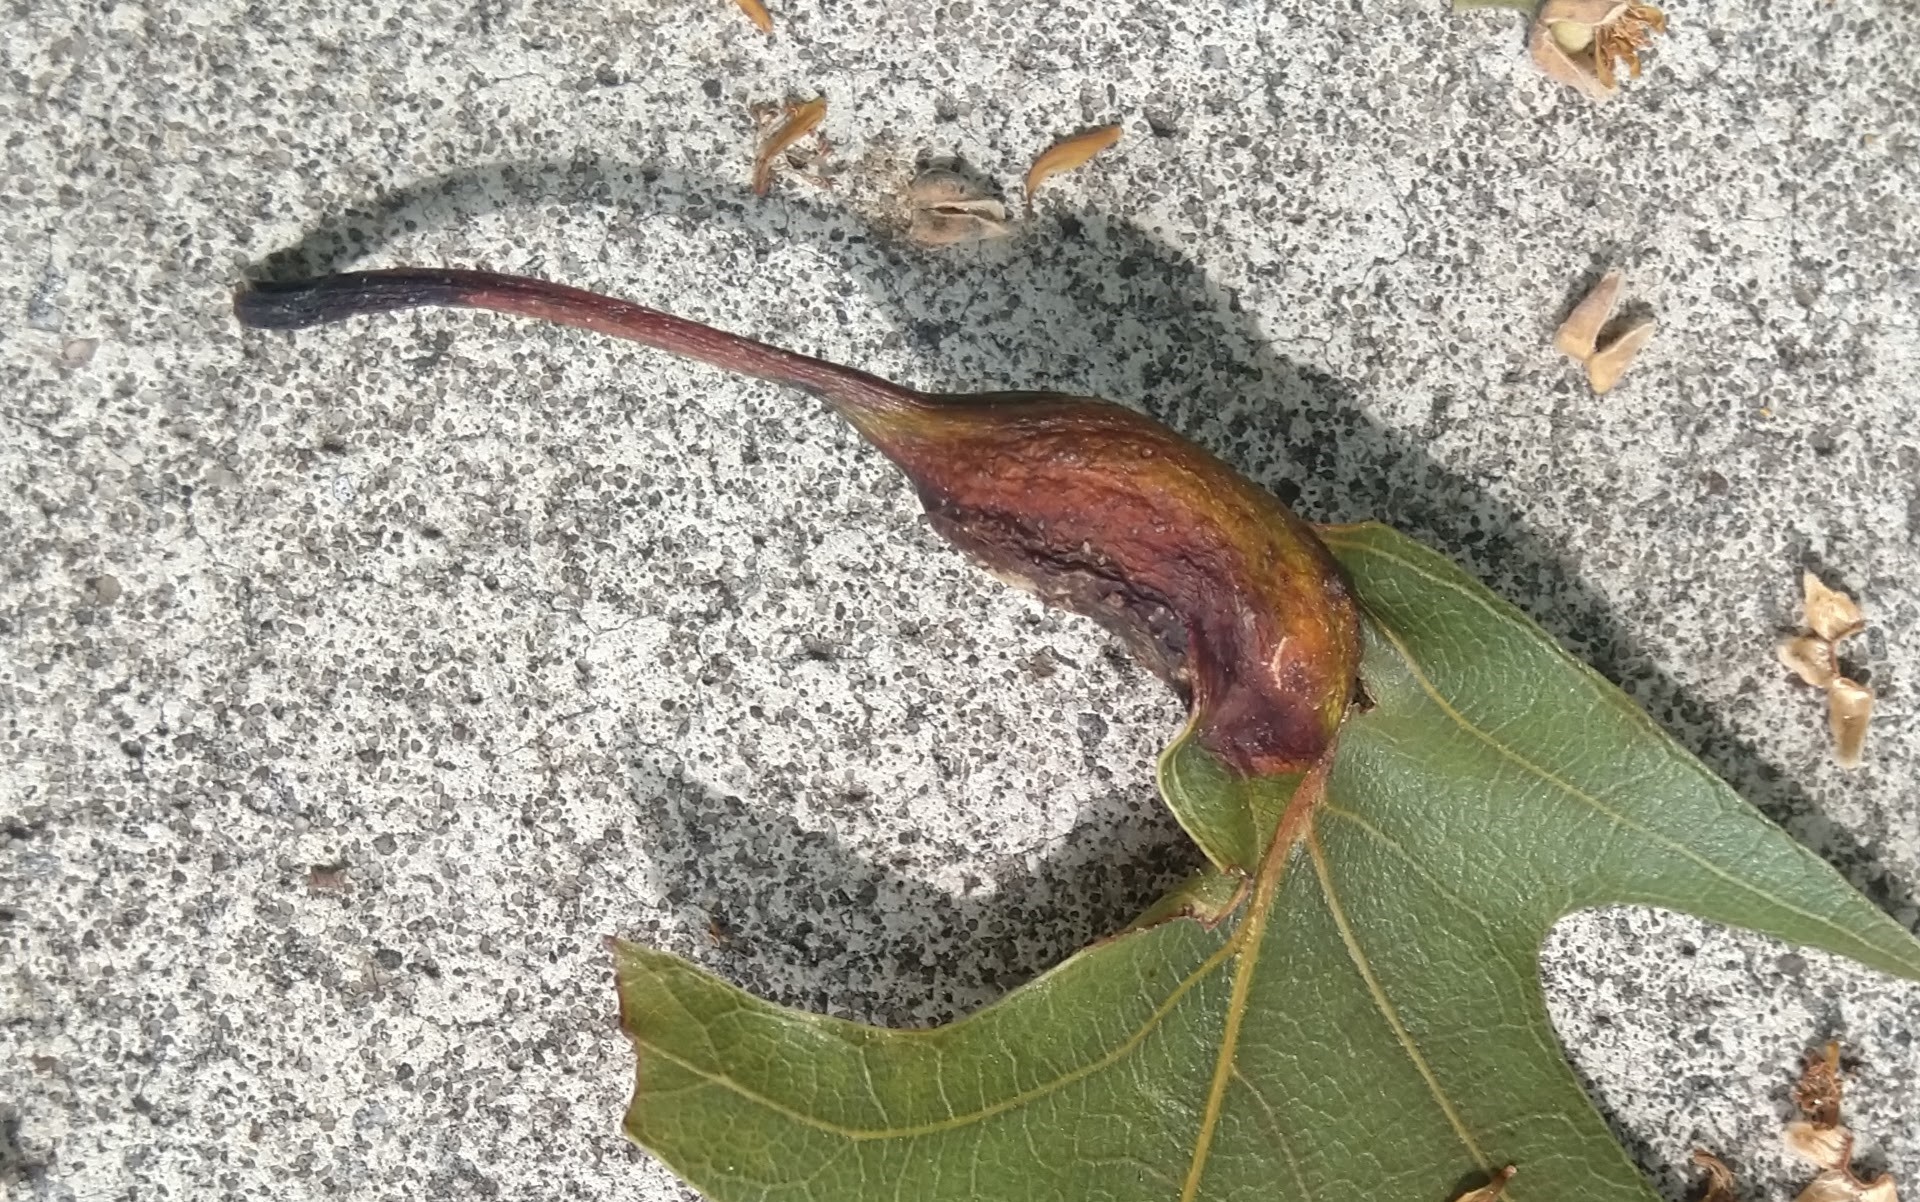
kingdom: Animalia
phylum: Arthropoda
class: Insecta
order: Hymenoptera
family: Cynipidae
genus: Melikaiella
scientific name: Melikaiella tumifica
